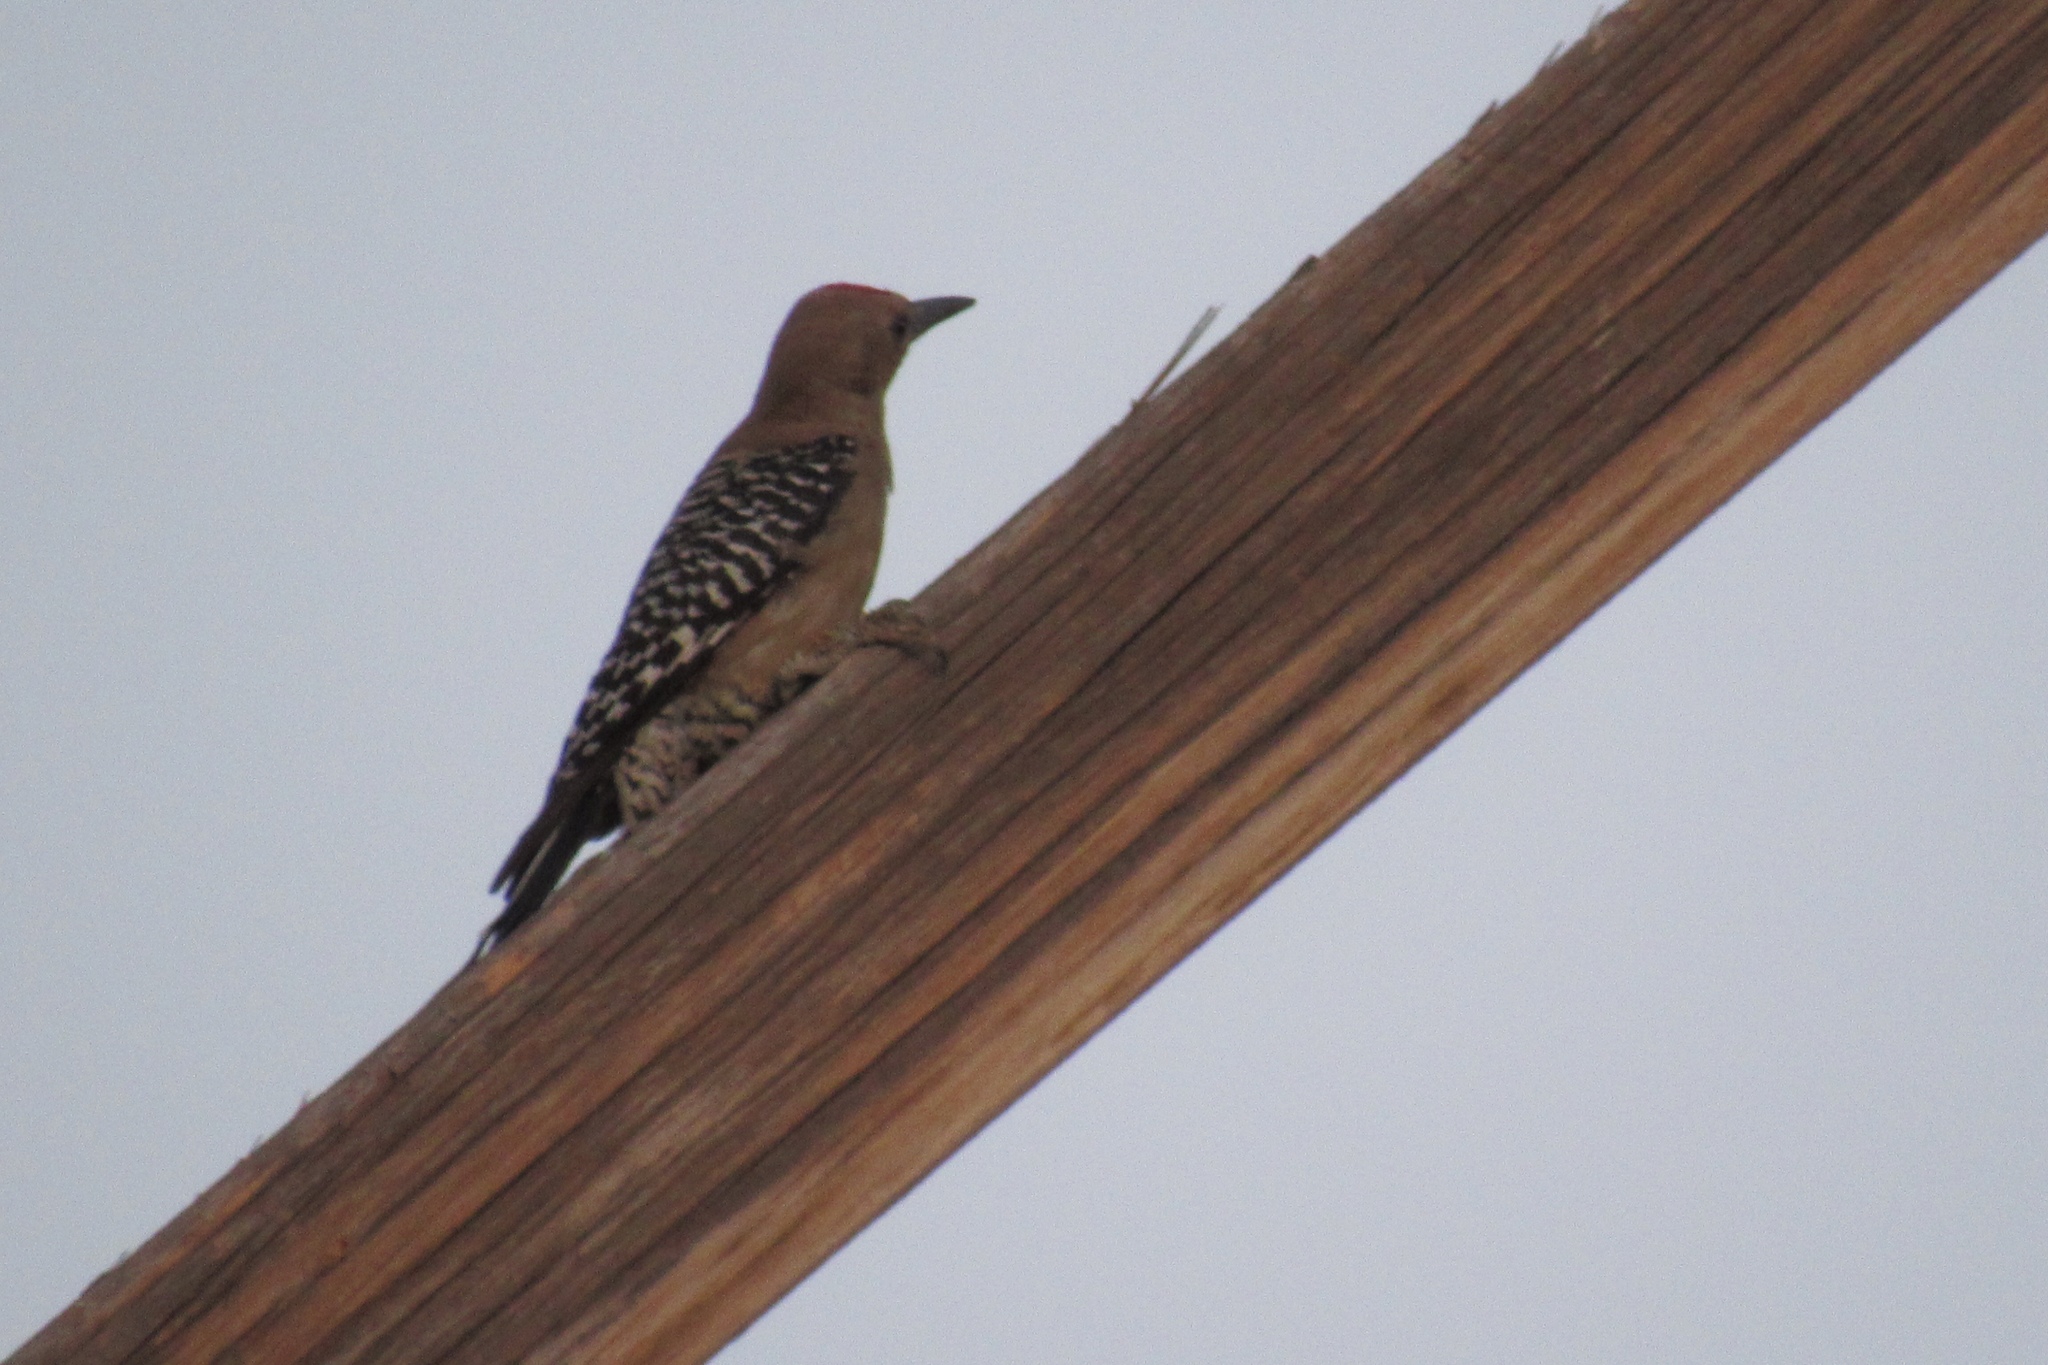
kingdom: Animalia
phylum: Chordata
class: Aves
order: Piciformes
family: Picidae
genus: Melanerpes
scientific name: Melanerpes uropygialis
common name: Gila woodpecker
